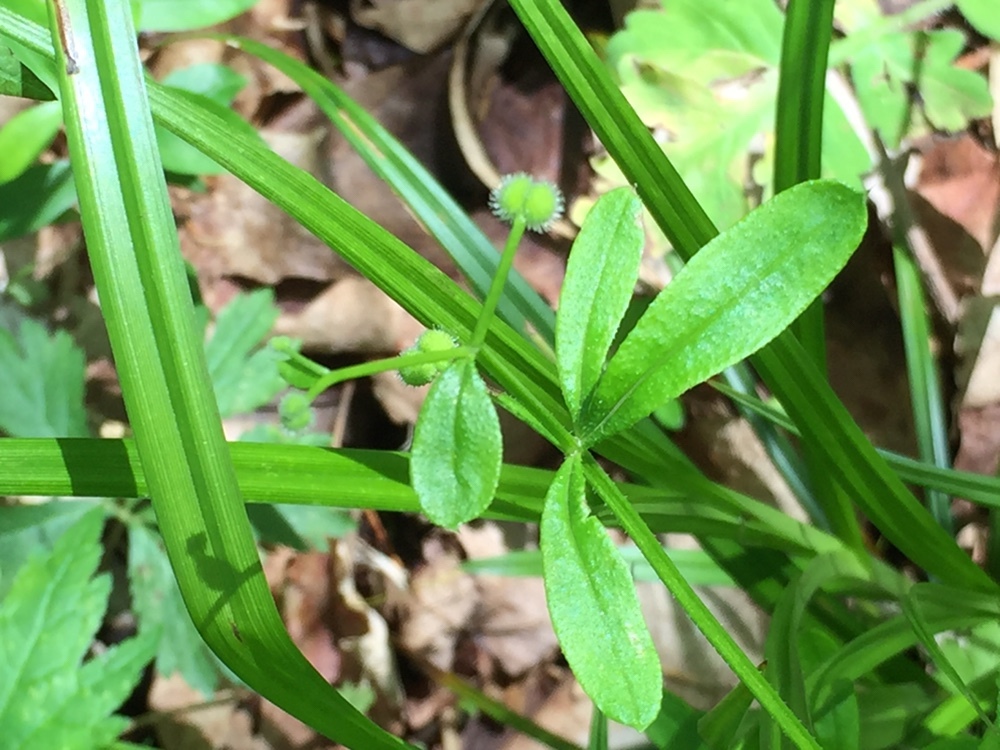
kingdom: Plantae
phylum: Tracheophyta
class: Magnoliopsida
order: Gentianales
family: Rubiaceae
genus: Galium
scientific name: Galium aparine
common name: Cleavers
